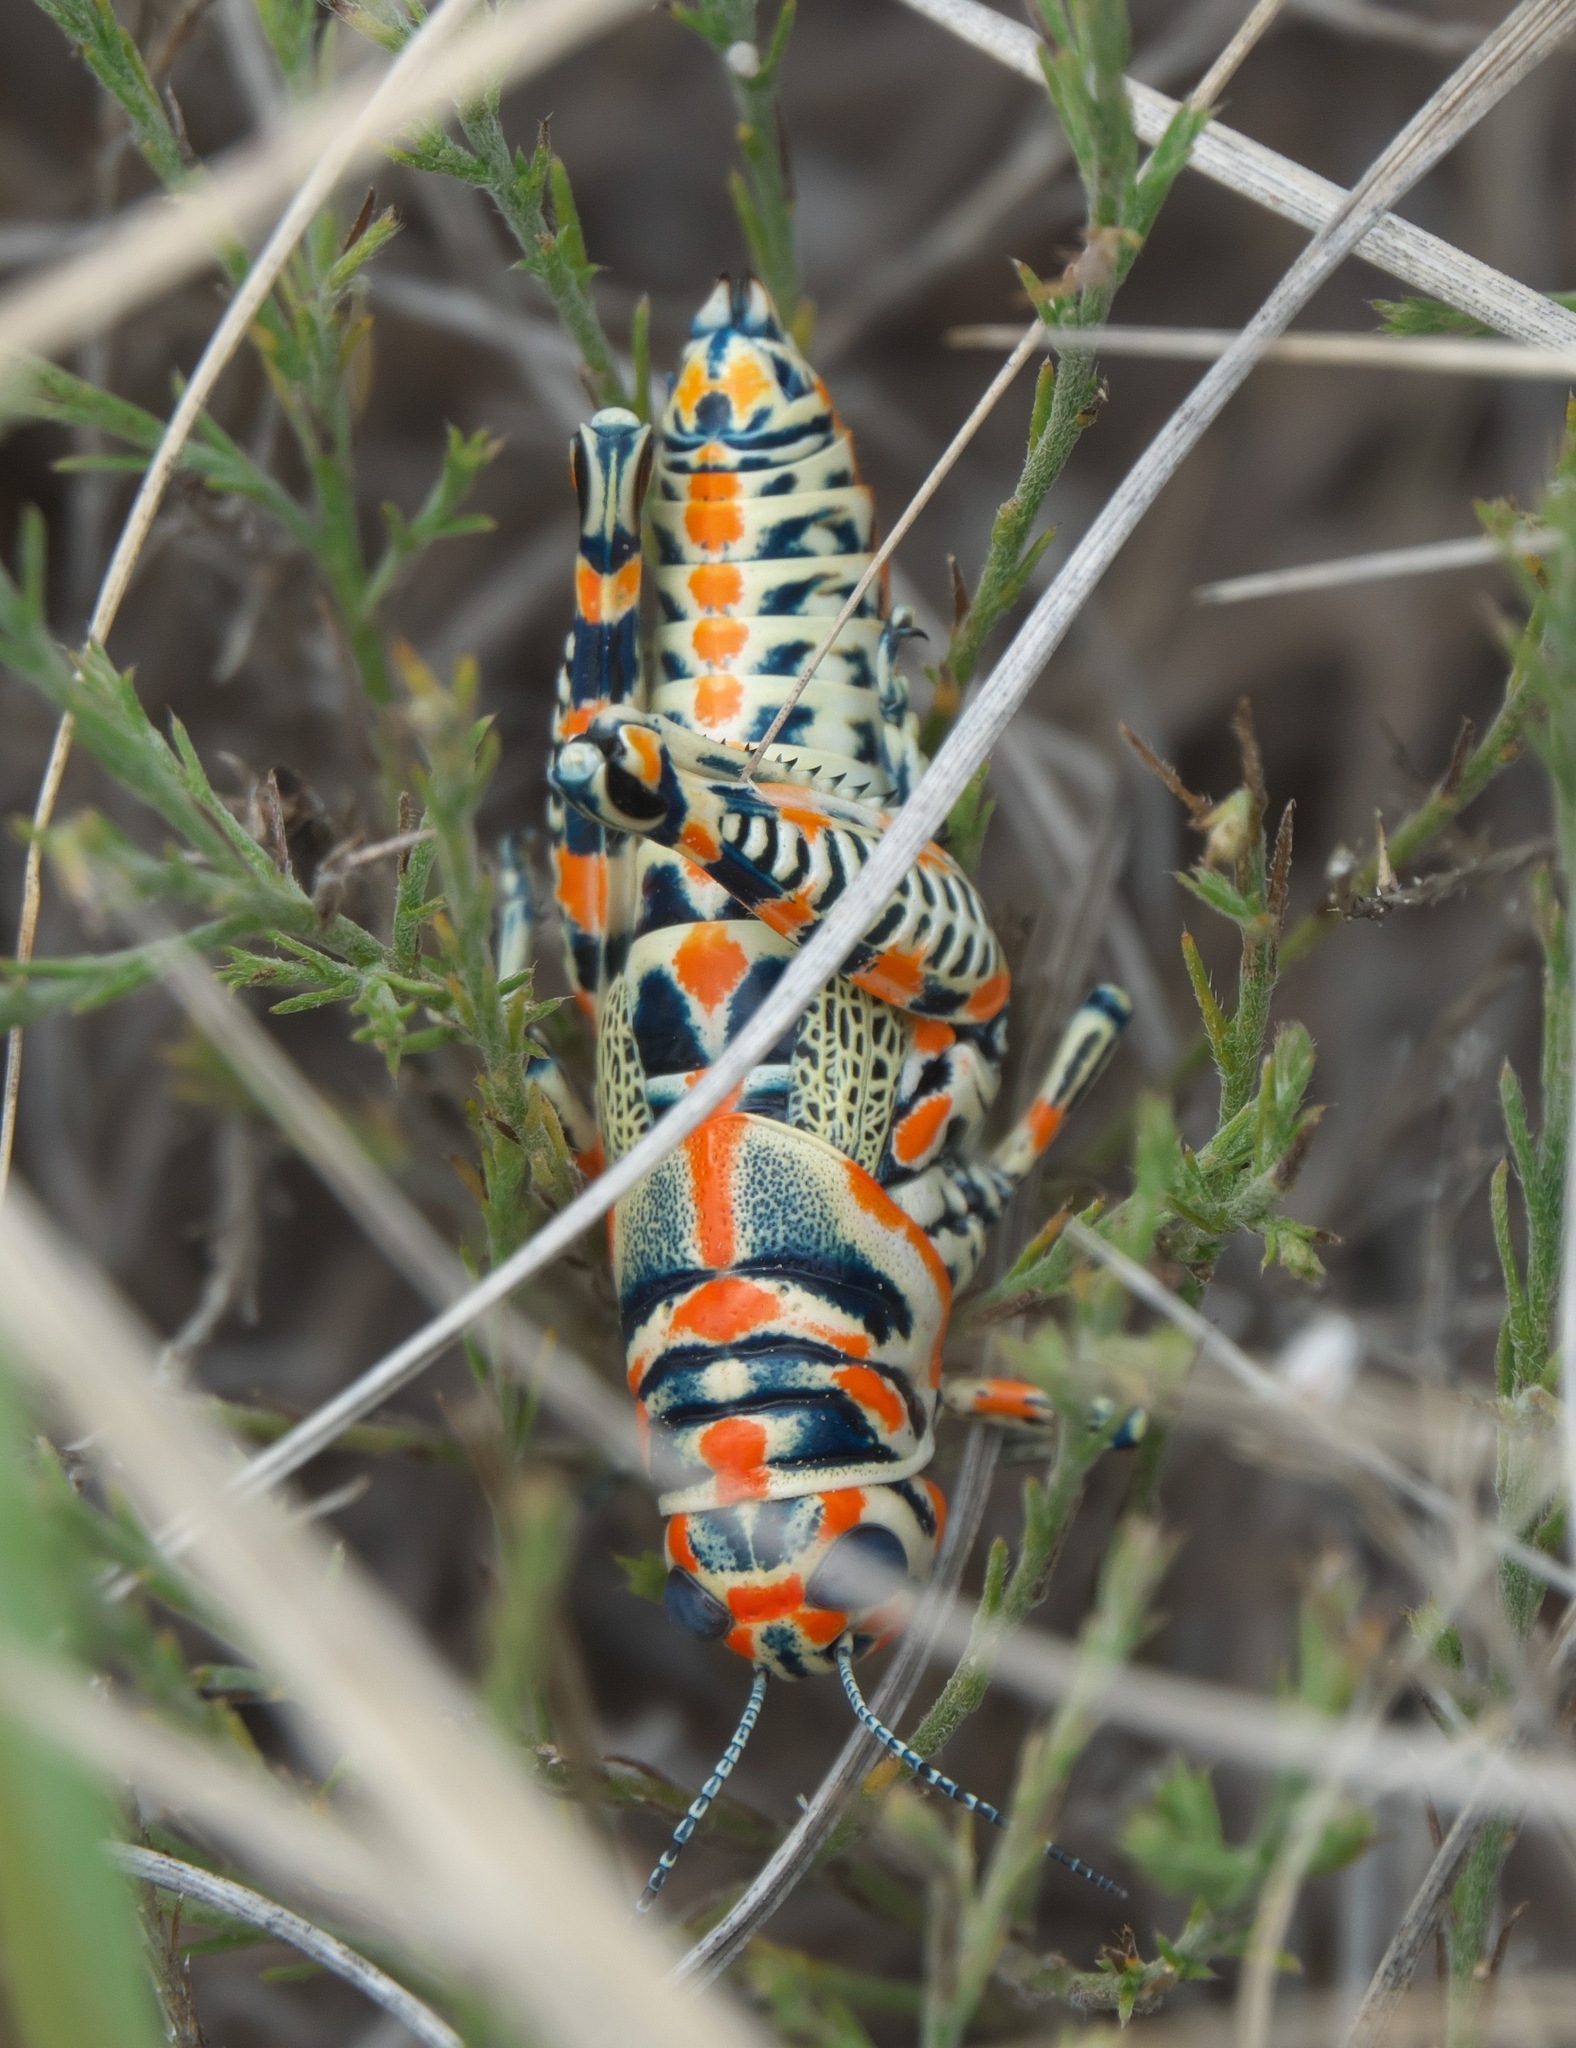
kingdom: Animalia
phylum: Arthropoda
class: Insecta
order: Orthoptera
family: Acrididae
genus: Dactylotum
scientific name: Dactylotum bicolor
